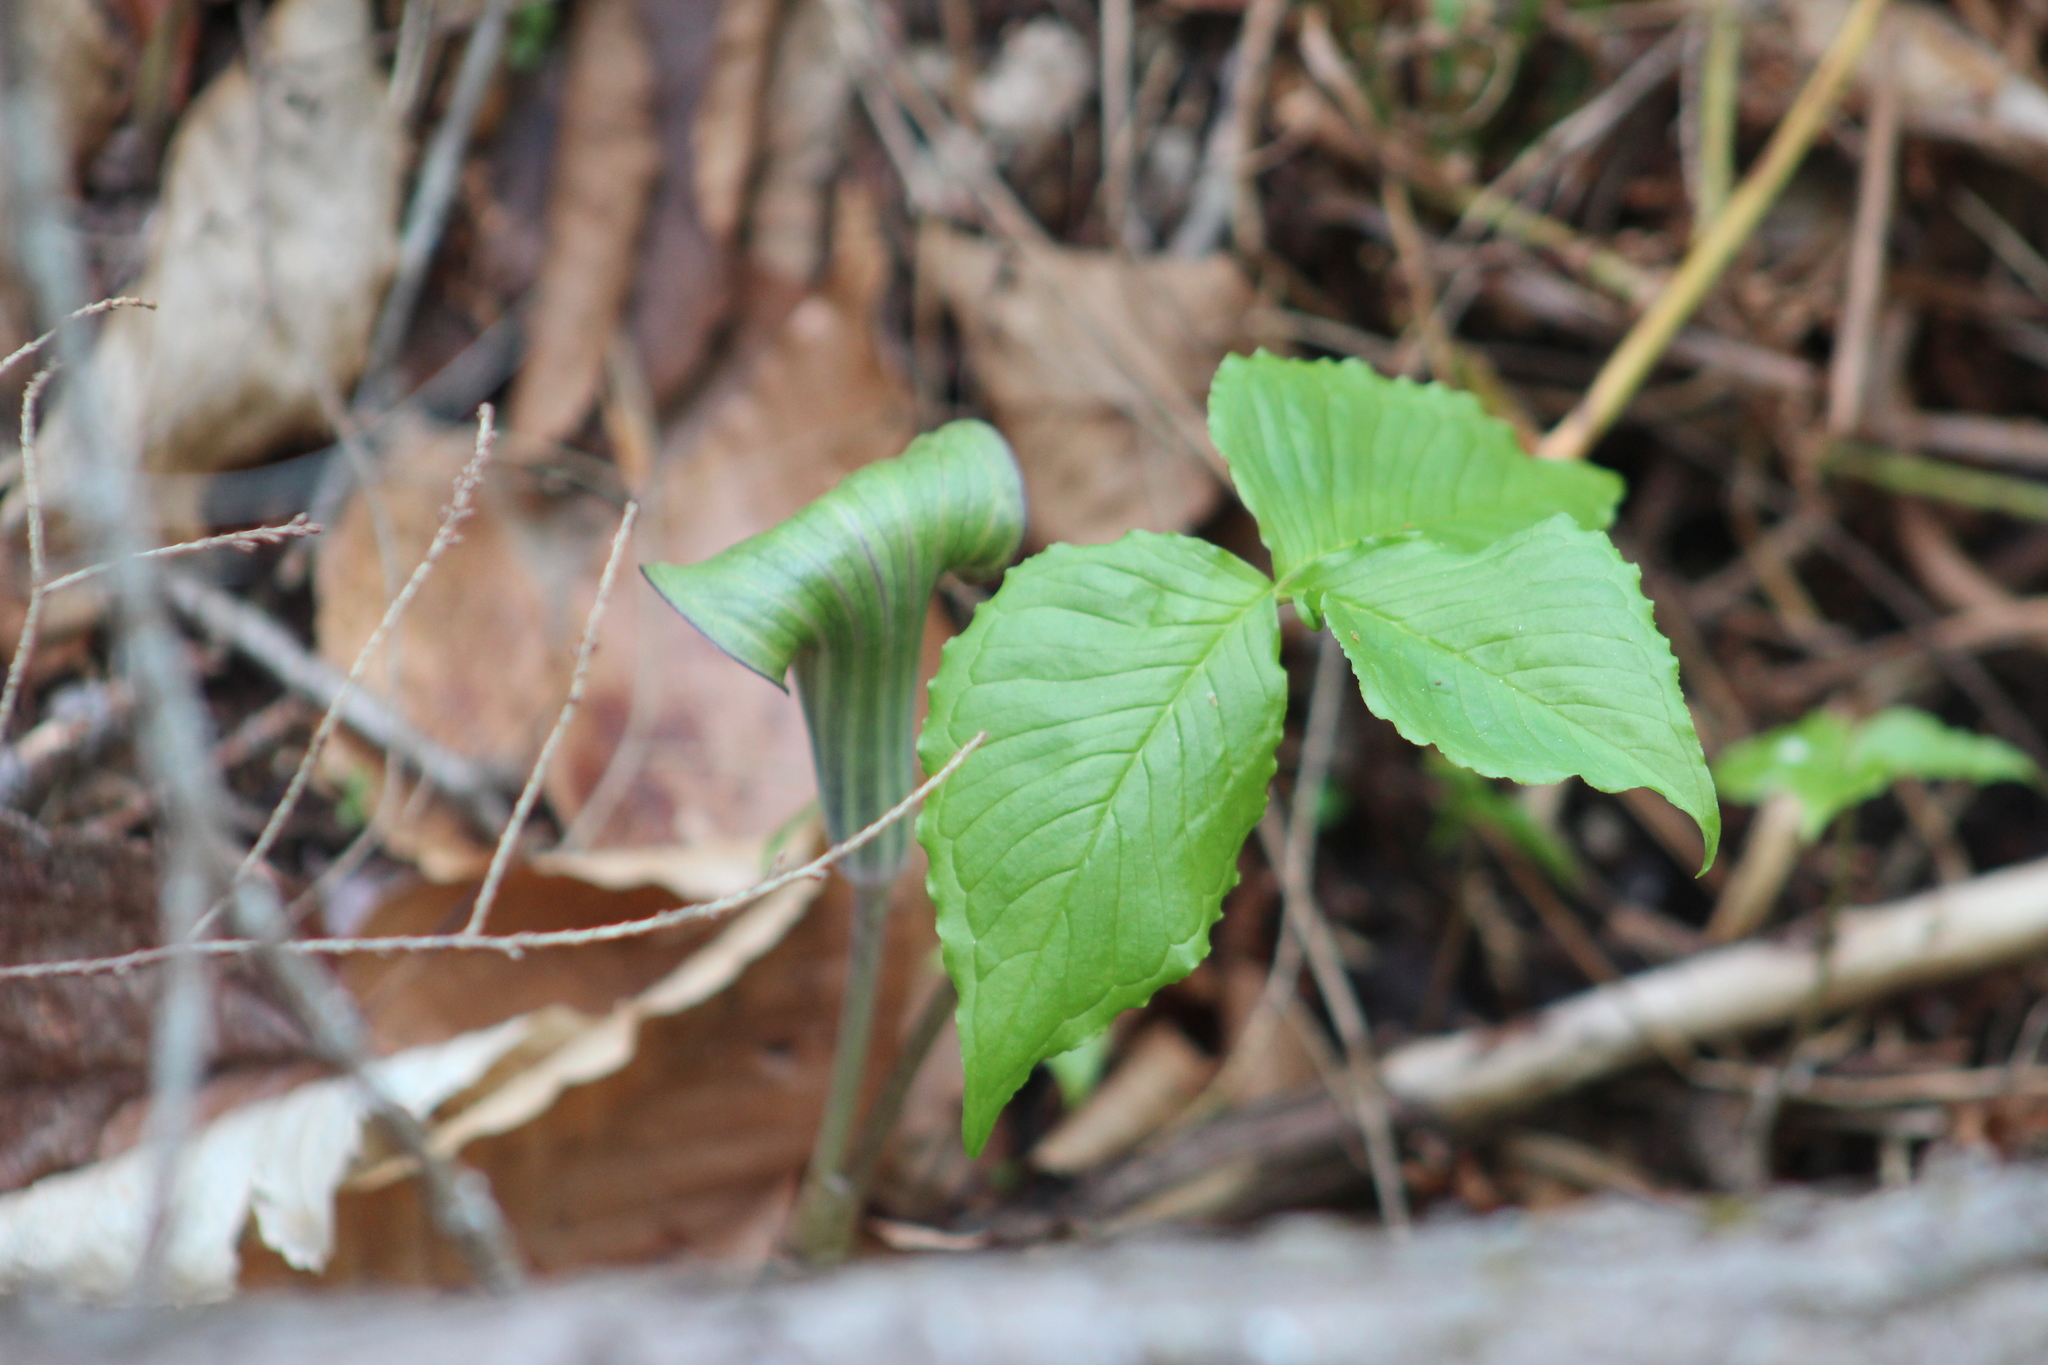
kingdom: Plantae
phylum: Tracheophyta
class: Liliopsida
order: Alismatales
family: Araceae
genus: Arisaema
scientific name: Arisaema triphyllum
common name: Jack-in-the-pulpit
